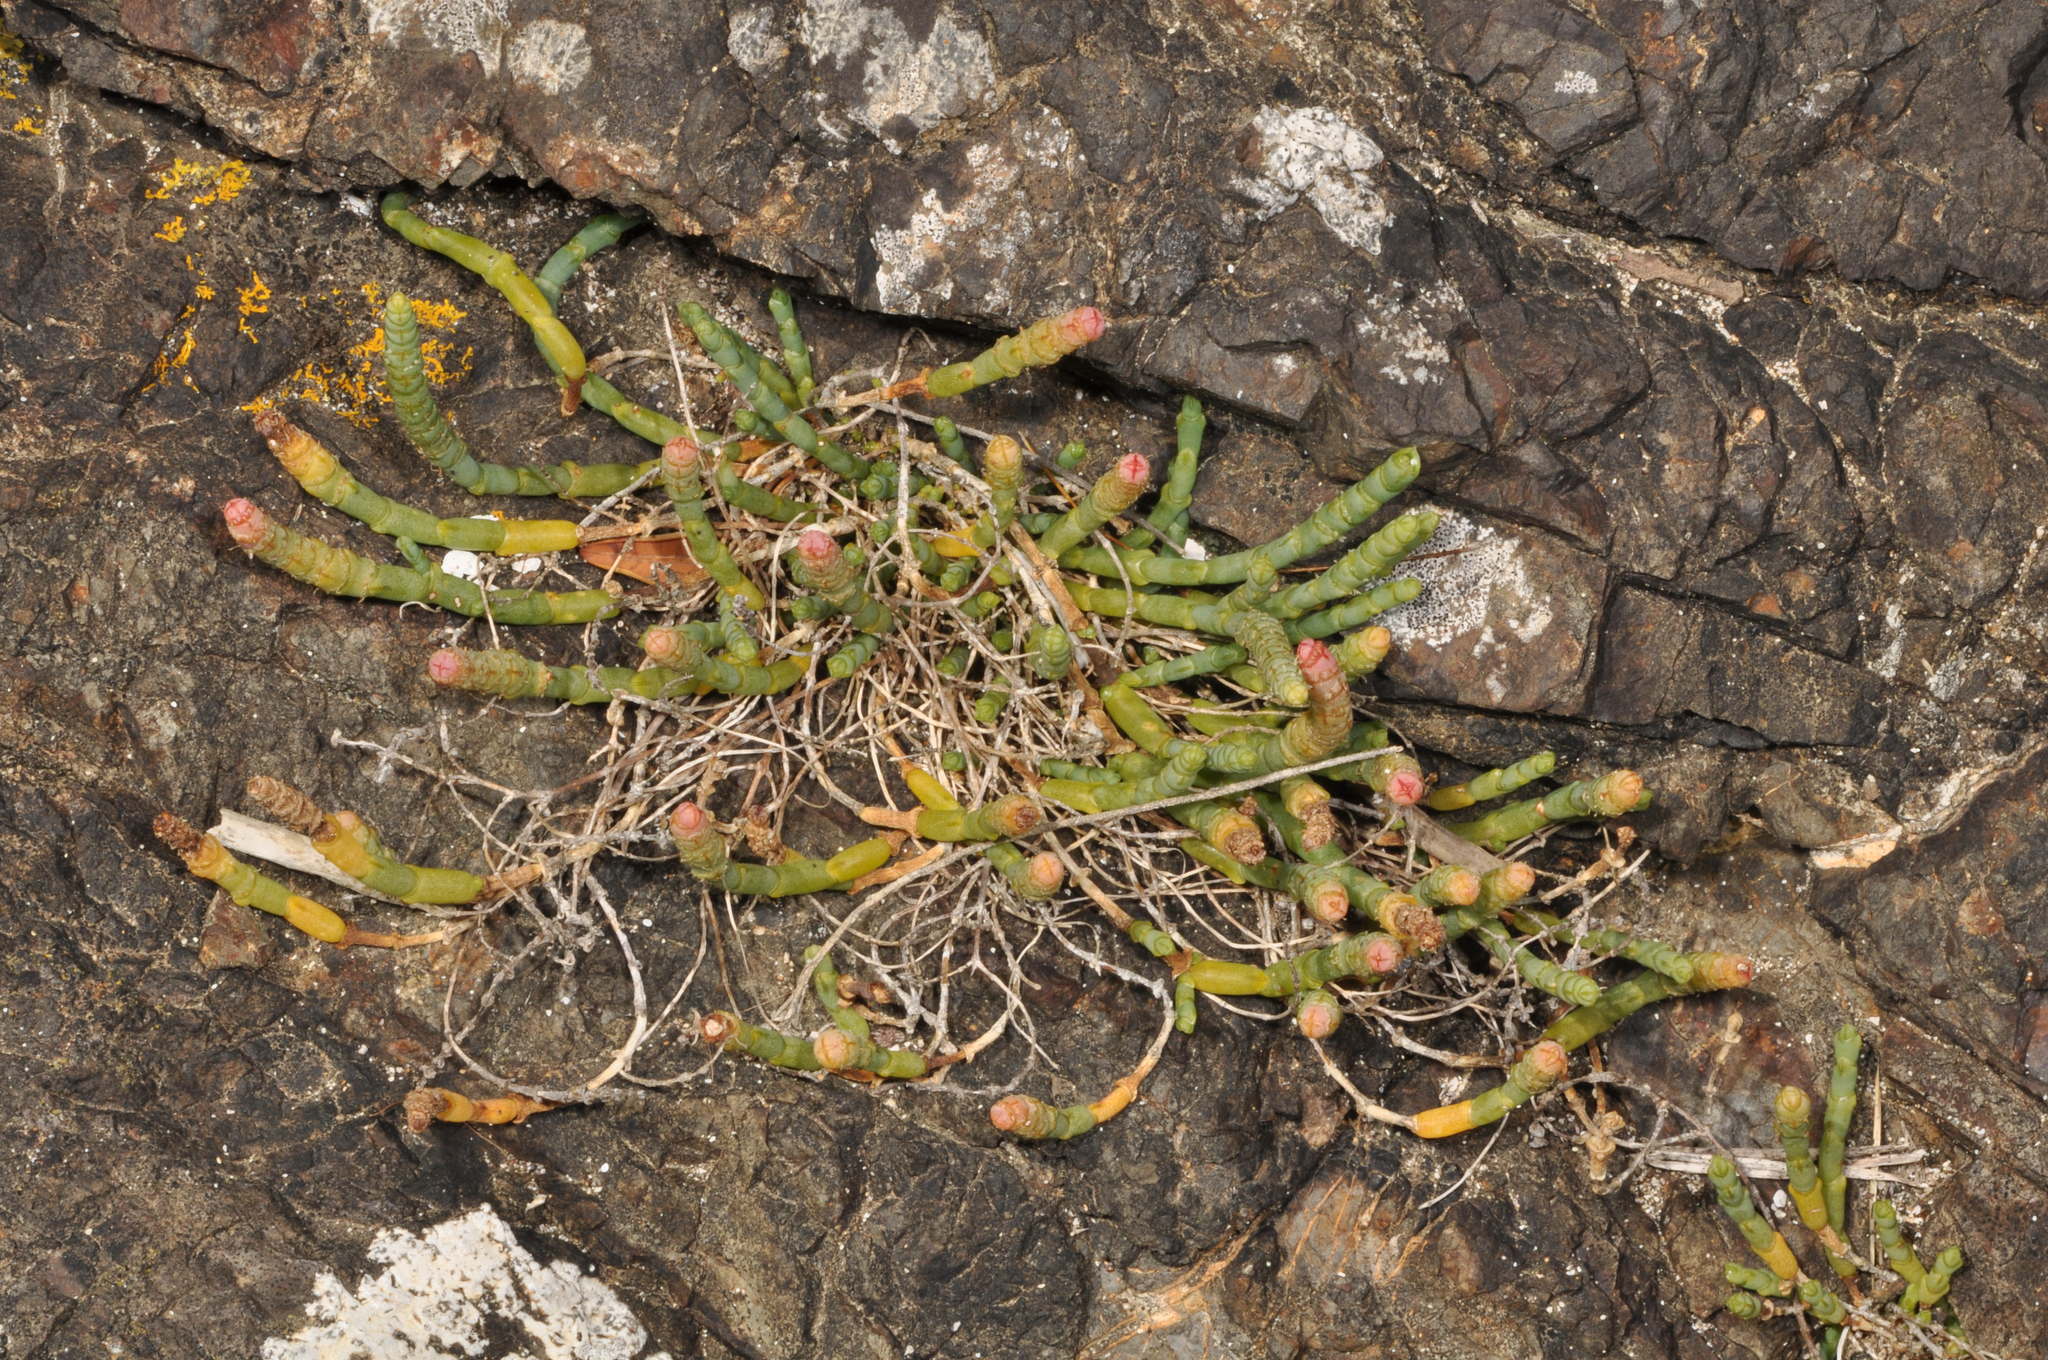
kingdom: Plantae
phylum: Tracheophyta
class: Magnoliopsida
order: Caryophyllales
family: Amaranthaceae
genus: Salicornia
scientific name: Salicornia quinqueflora
